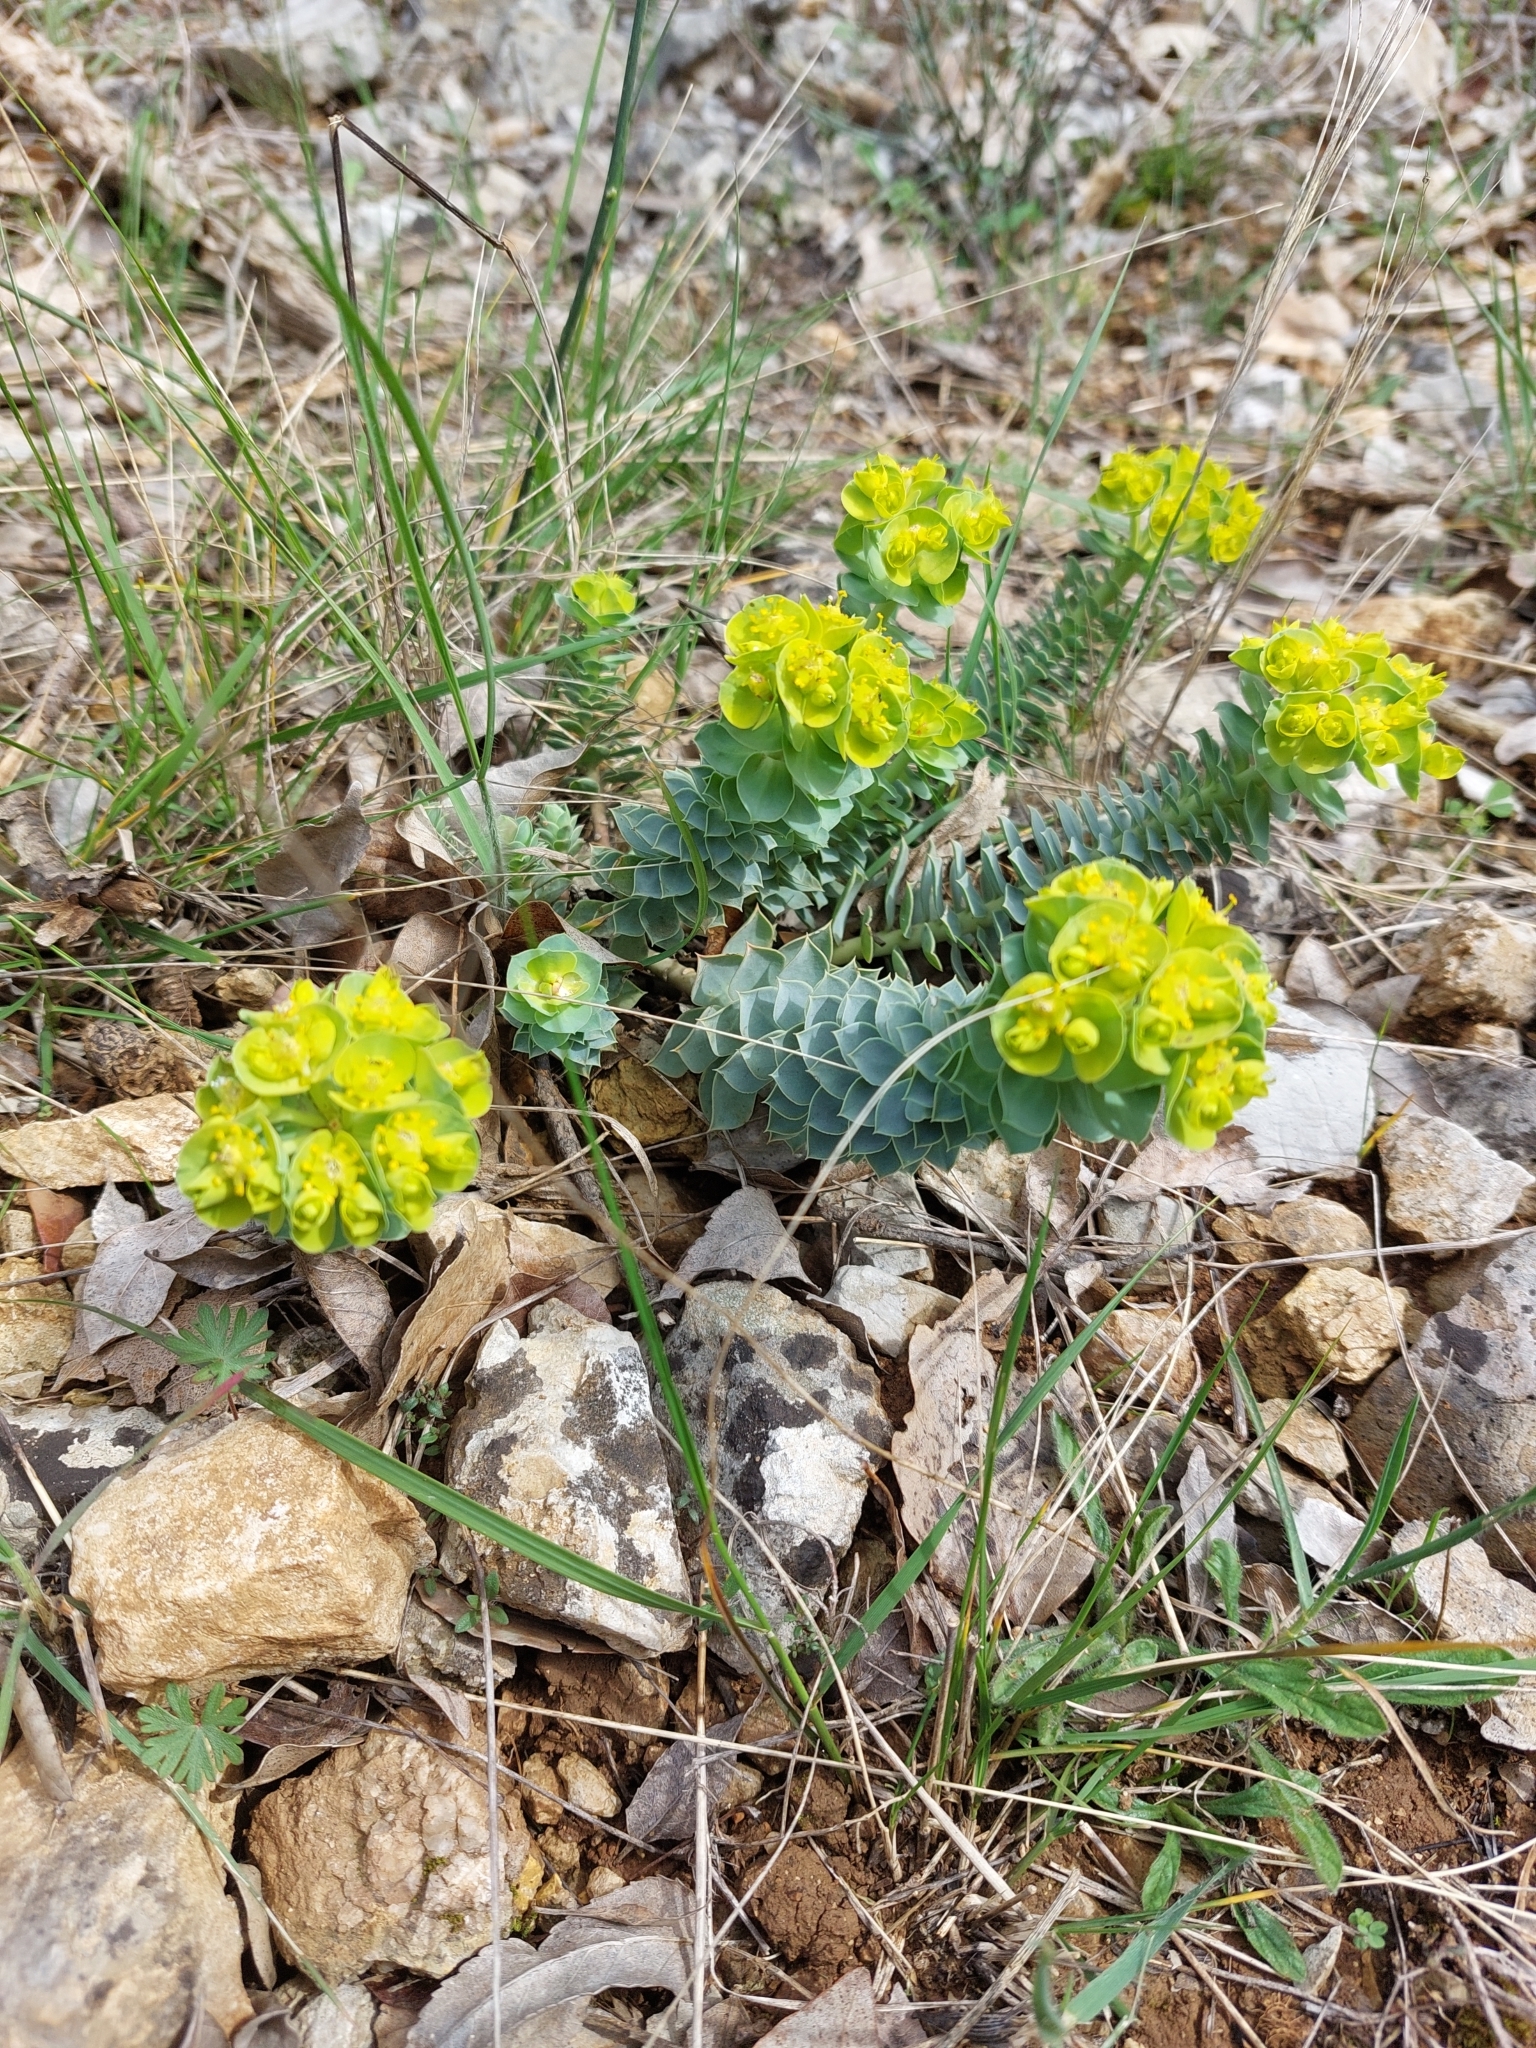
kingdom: Plantae
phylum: Tracheophyta
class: Magnoliopsida
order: Malpighiales
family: Euphorbiaceae
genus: Euphorbia
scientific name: Euphorbia myrsinites
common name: Myrtle spurge
